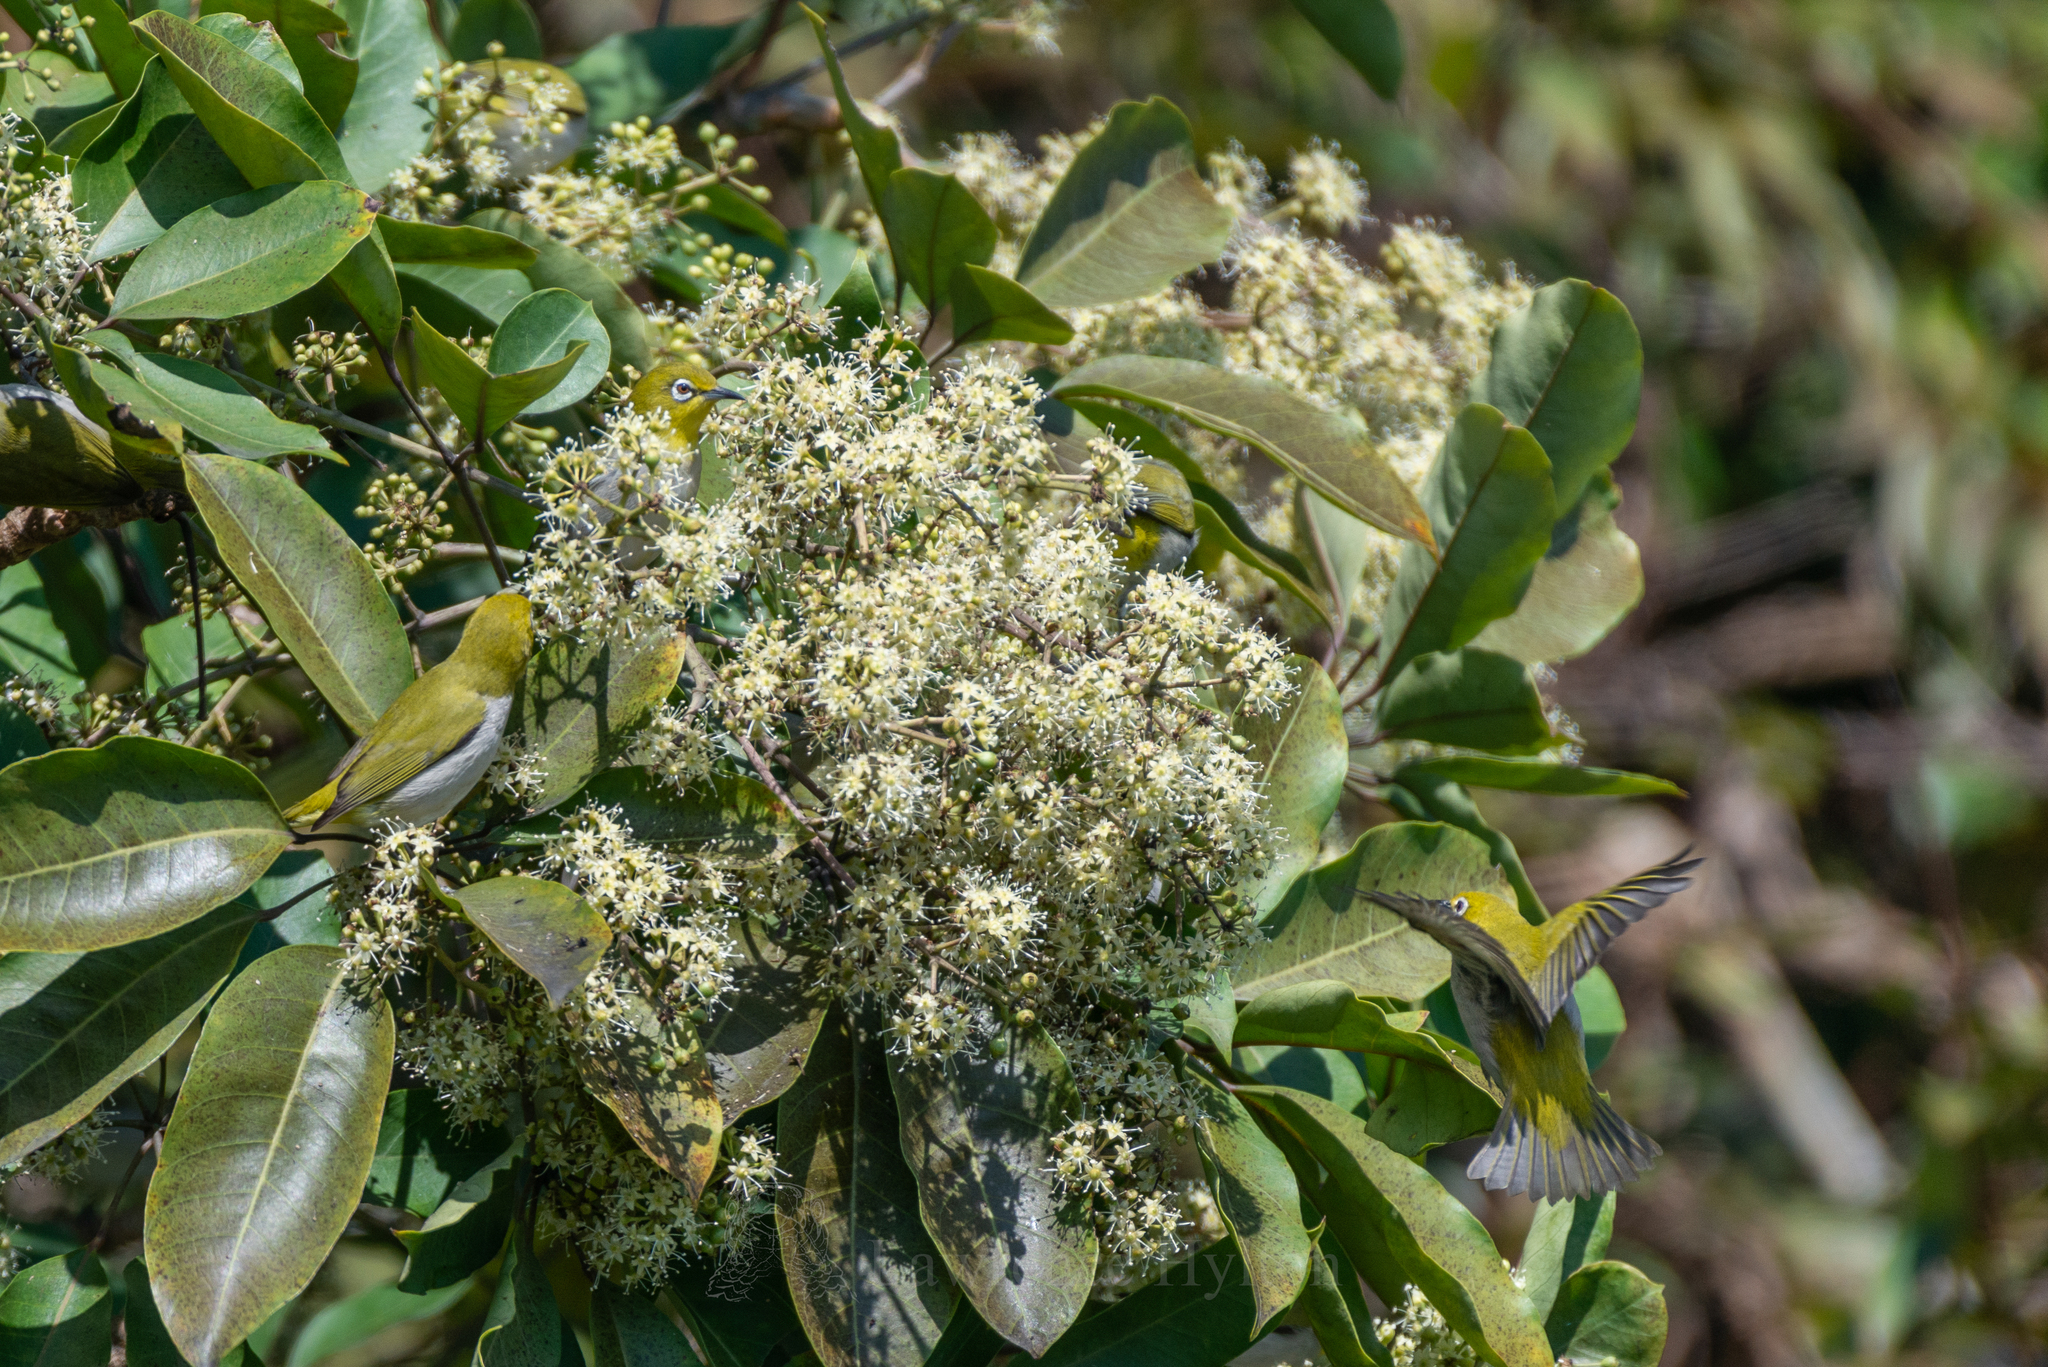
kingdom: Animalia
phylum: Chordata
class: Aves
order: Passeriformes
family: Zosteropidae
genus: Zosterops
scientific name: Zosterops simplex
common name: Swinhoe's white-eye
